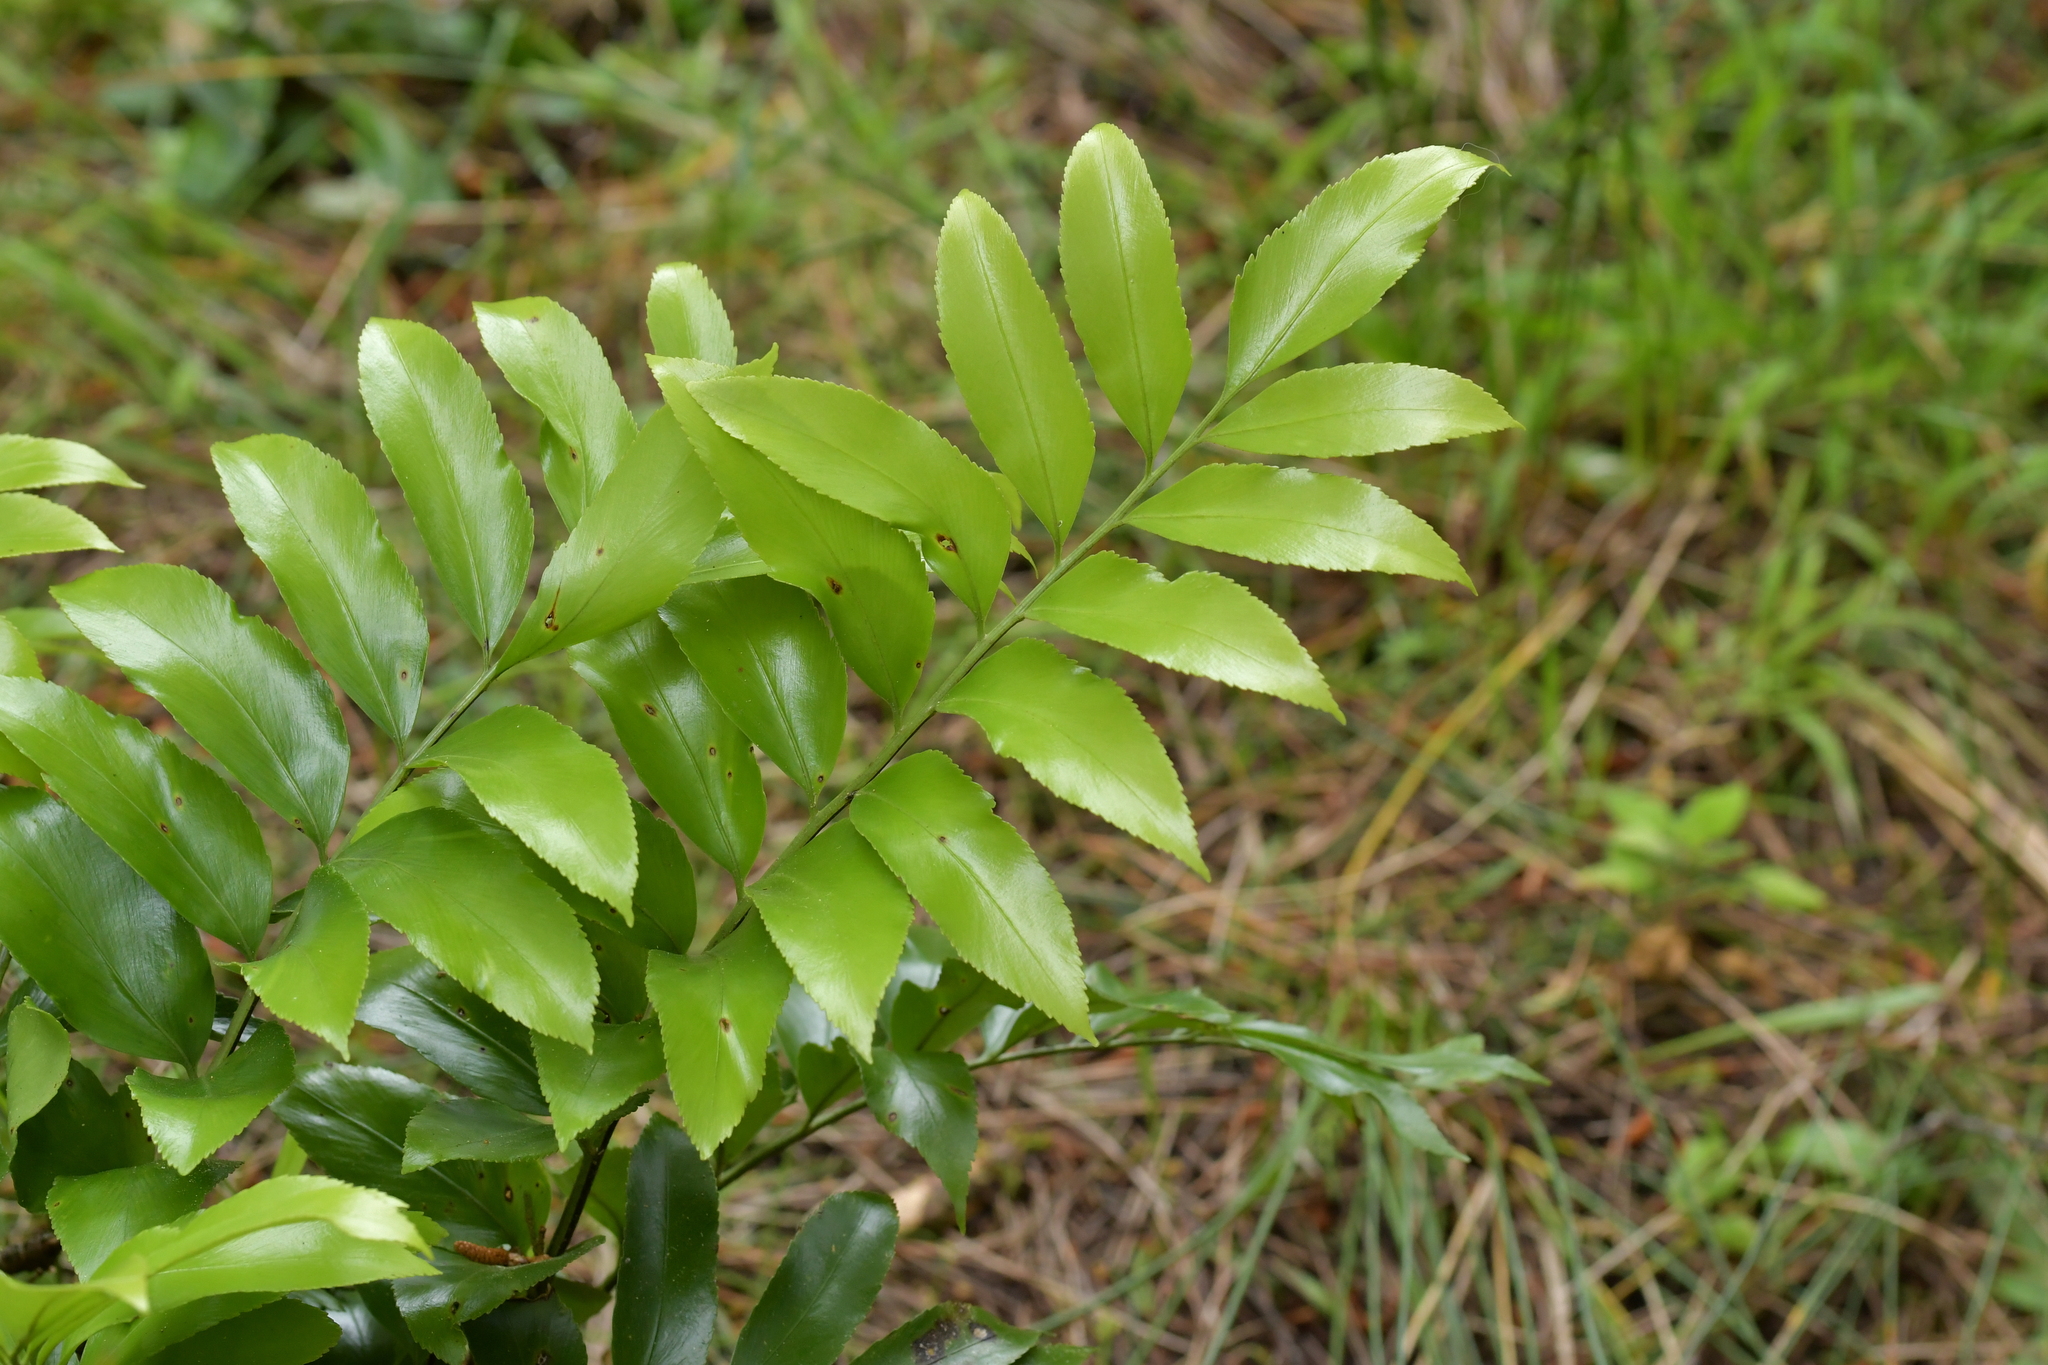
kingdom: Plantae
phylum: Tracheophyta
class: Polypodiopsida
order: Polypodiales
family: Aspleniaceae
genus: Asplenium
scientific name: Asplenium oblongifolium
